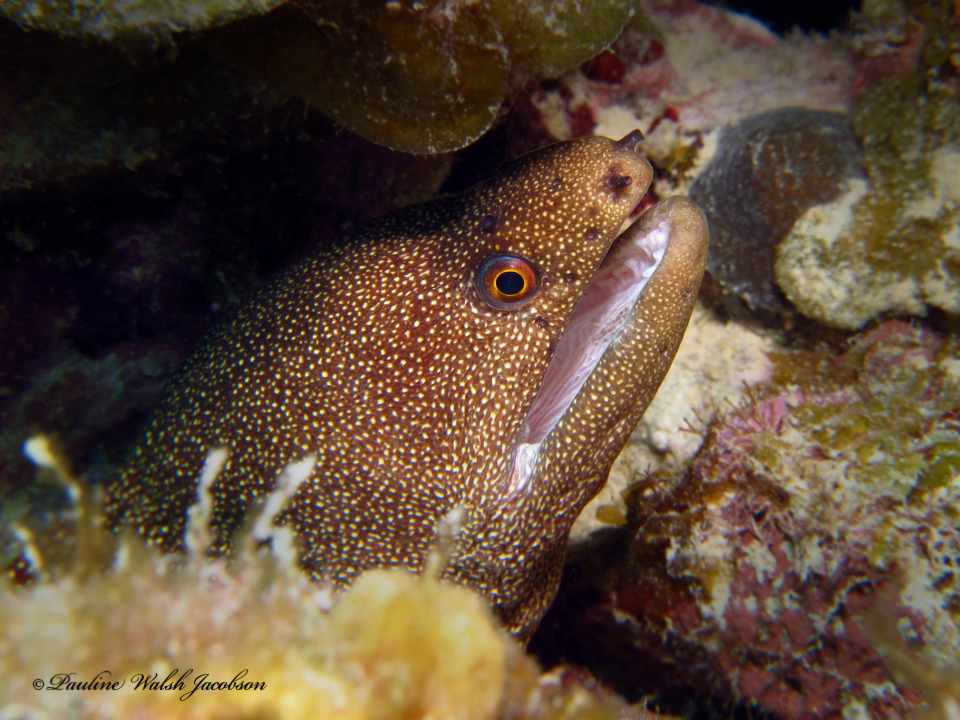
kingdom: Animalia
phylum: Chordata
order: Anguilliformes
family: Muraenidae
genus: Gymnothorax
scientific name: Gymnothorax miliaris
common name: Goldentail moray
